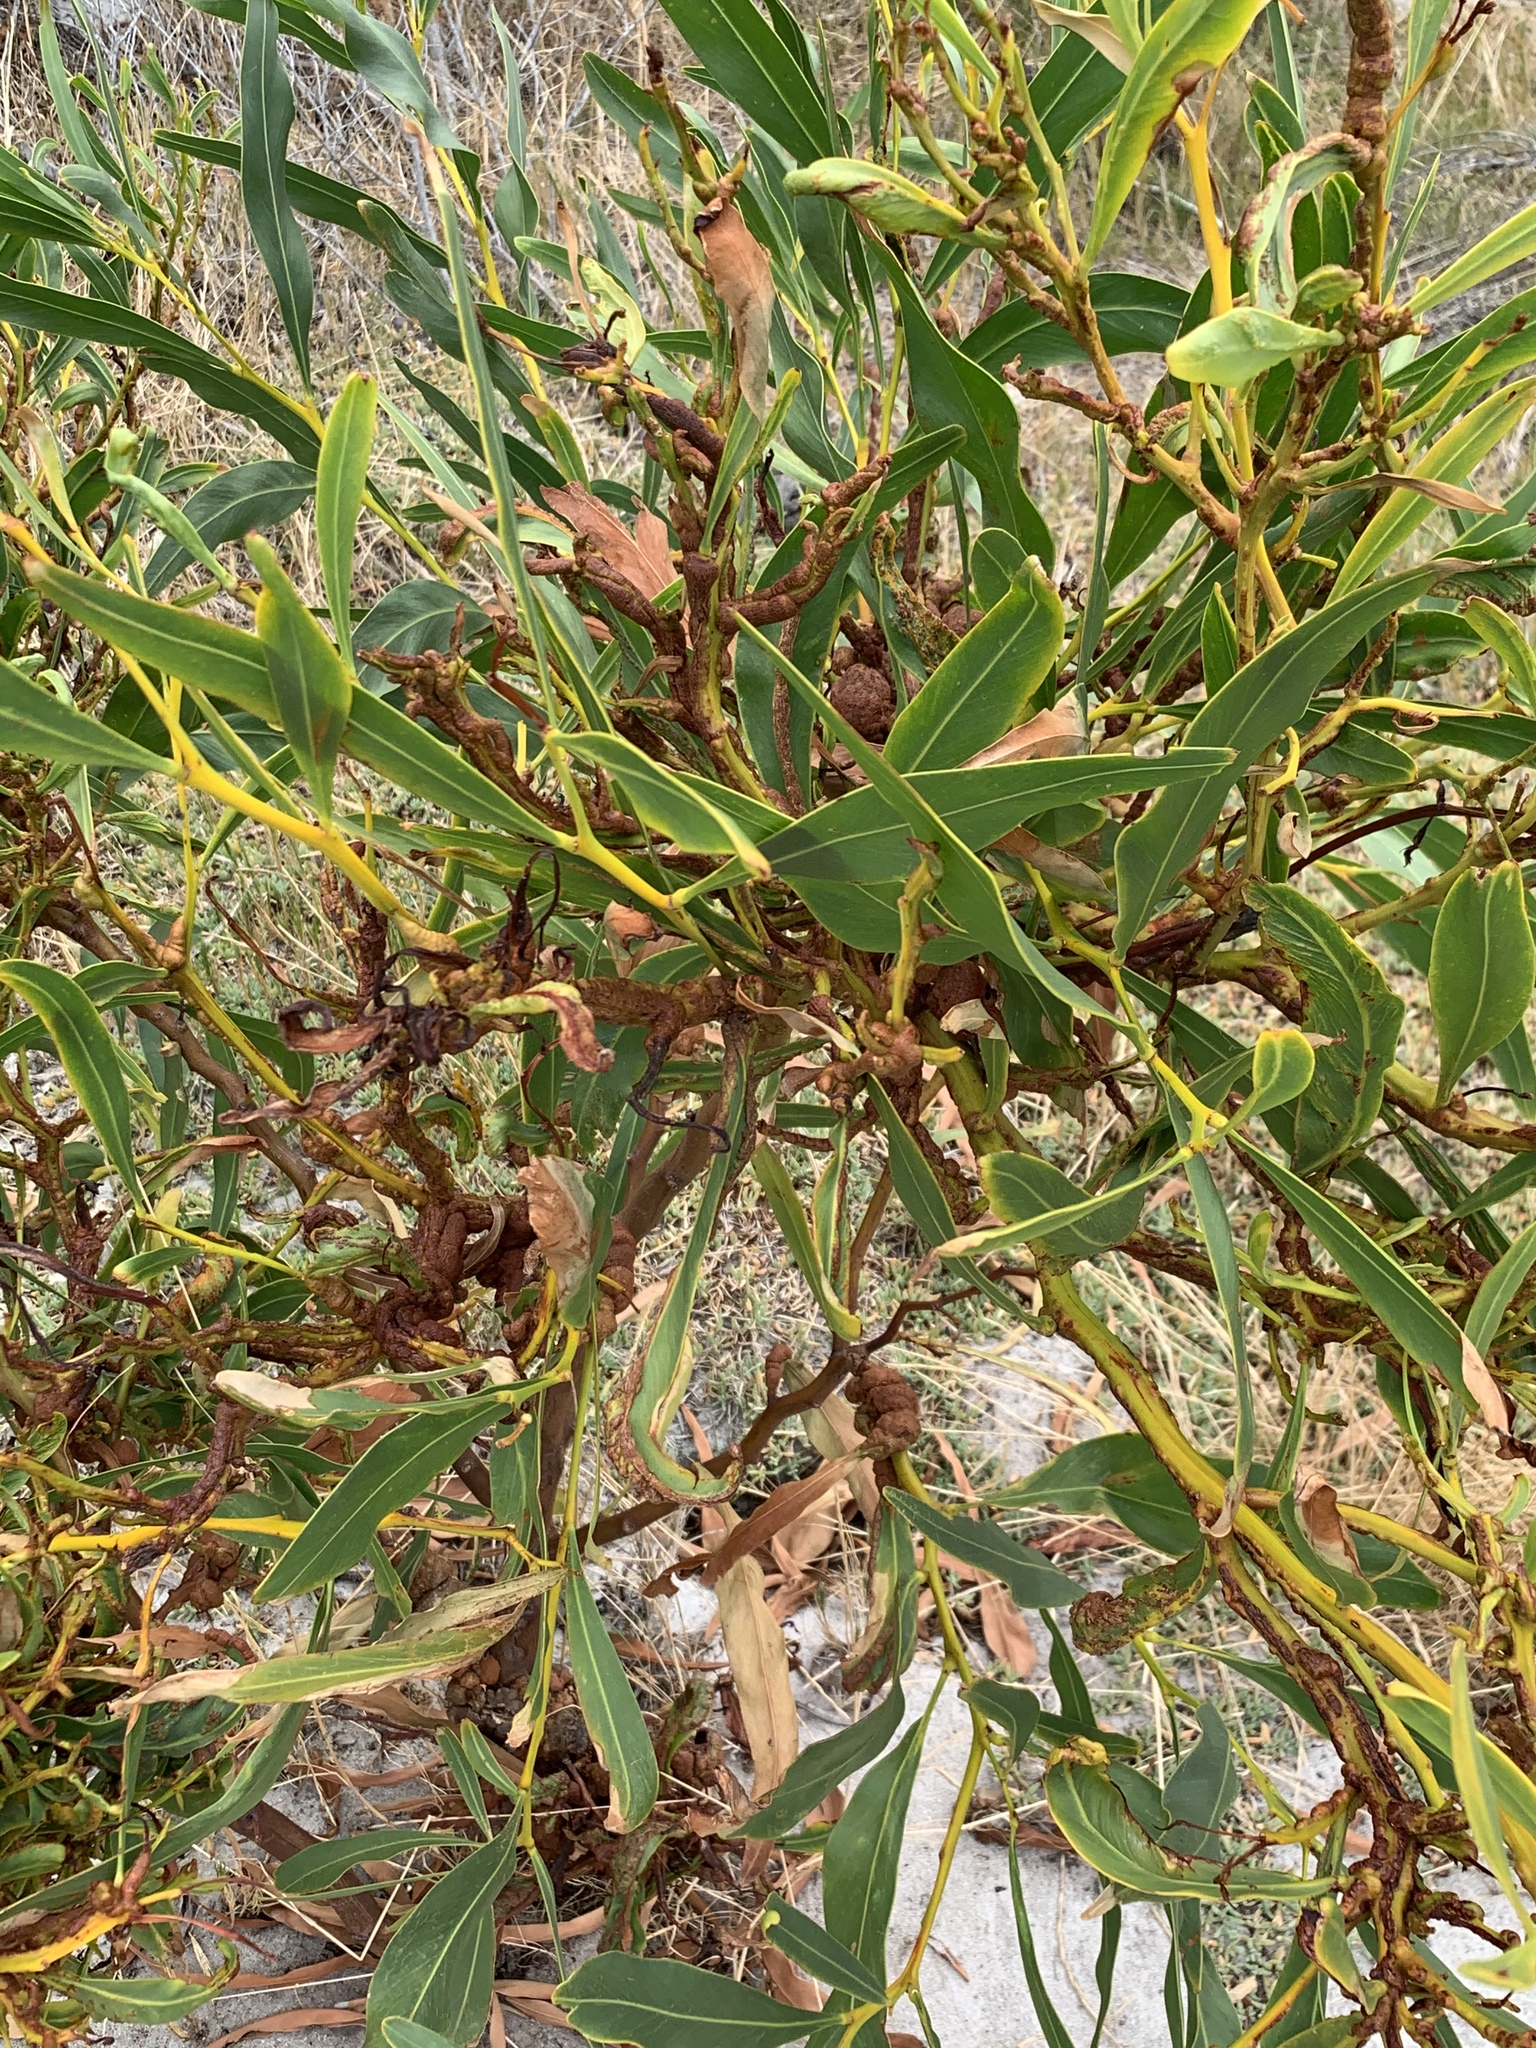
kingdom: Plantae
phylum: Tracheophyta
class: Magnoliopsida
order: Fabales
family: Fabaceae
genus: Acacia
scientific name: Acacia saligna
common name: Orange wattle
